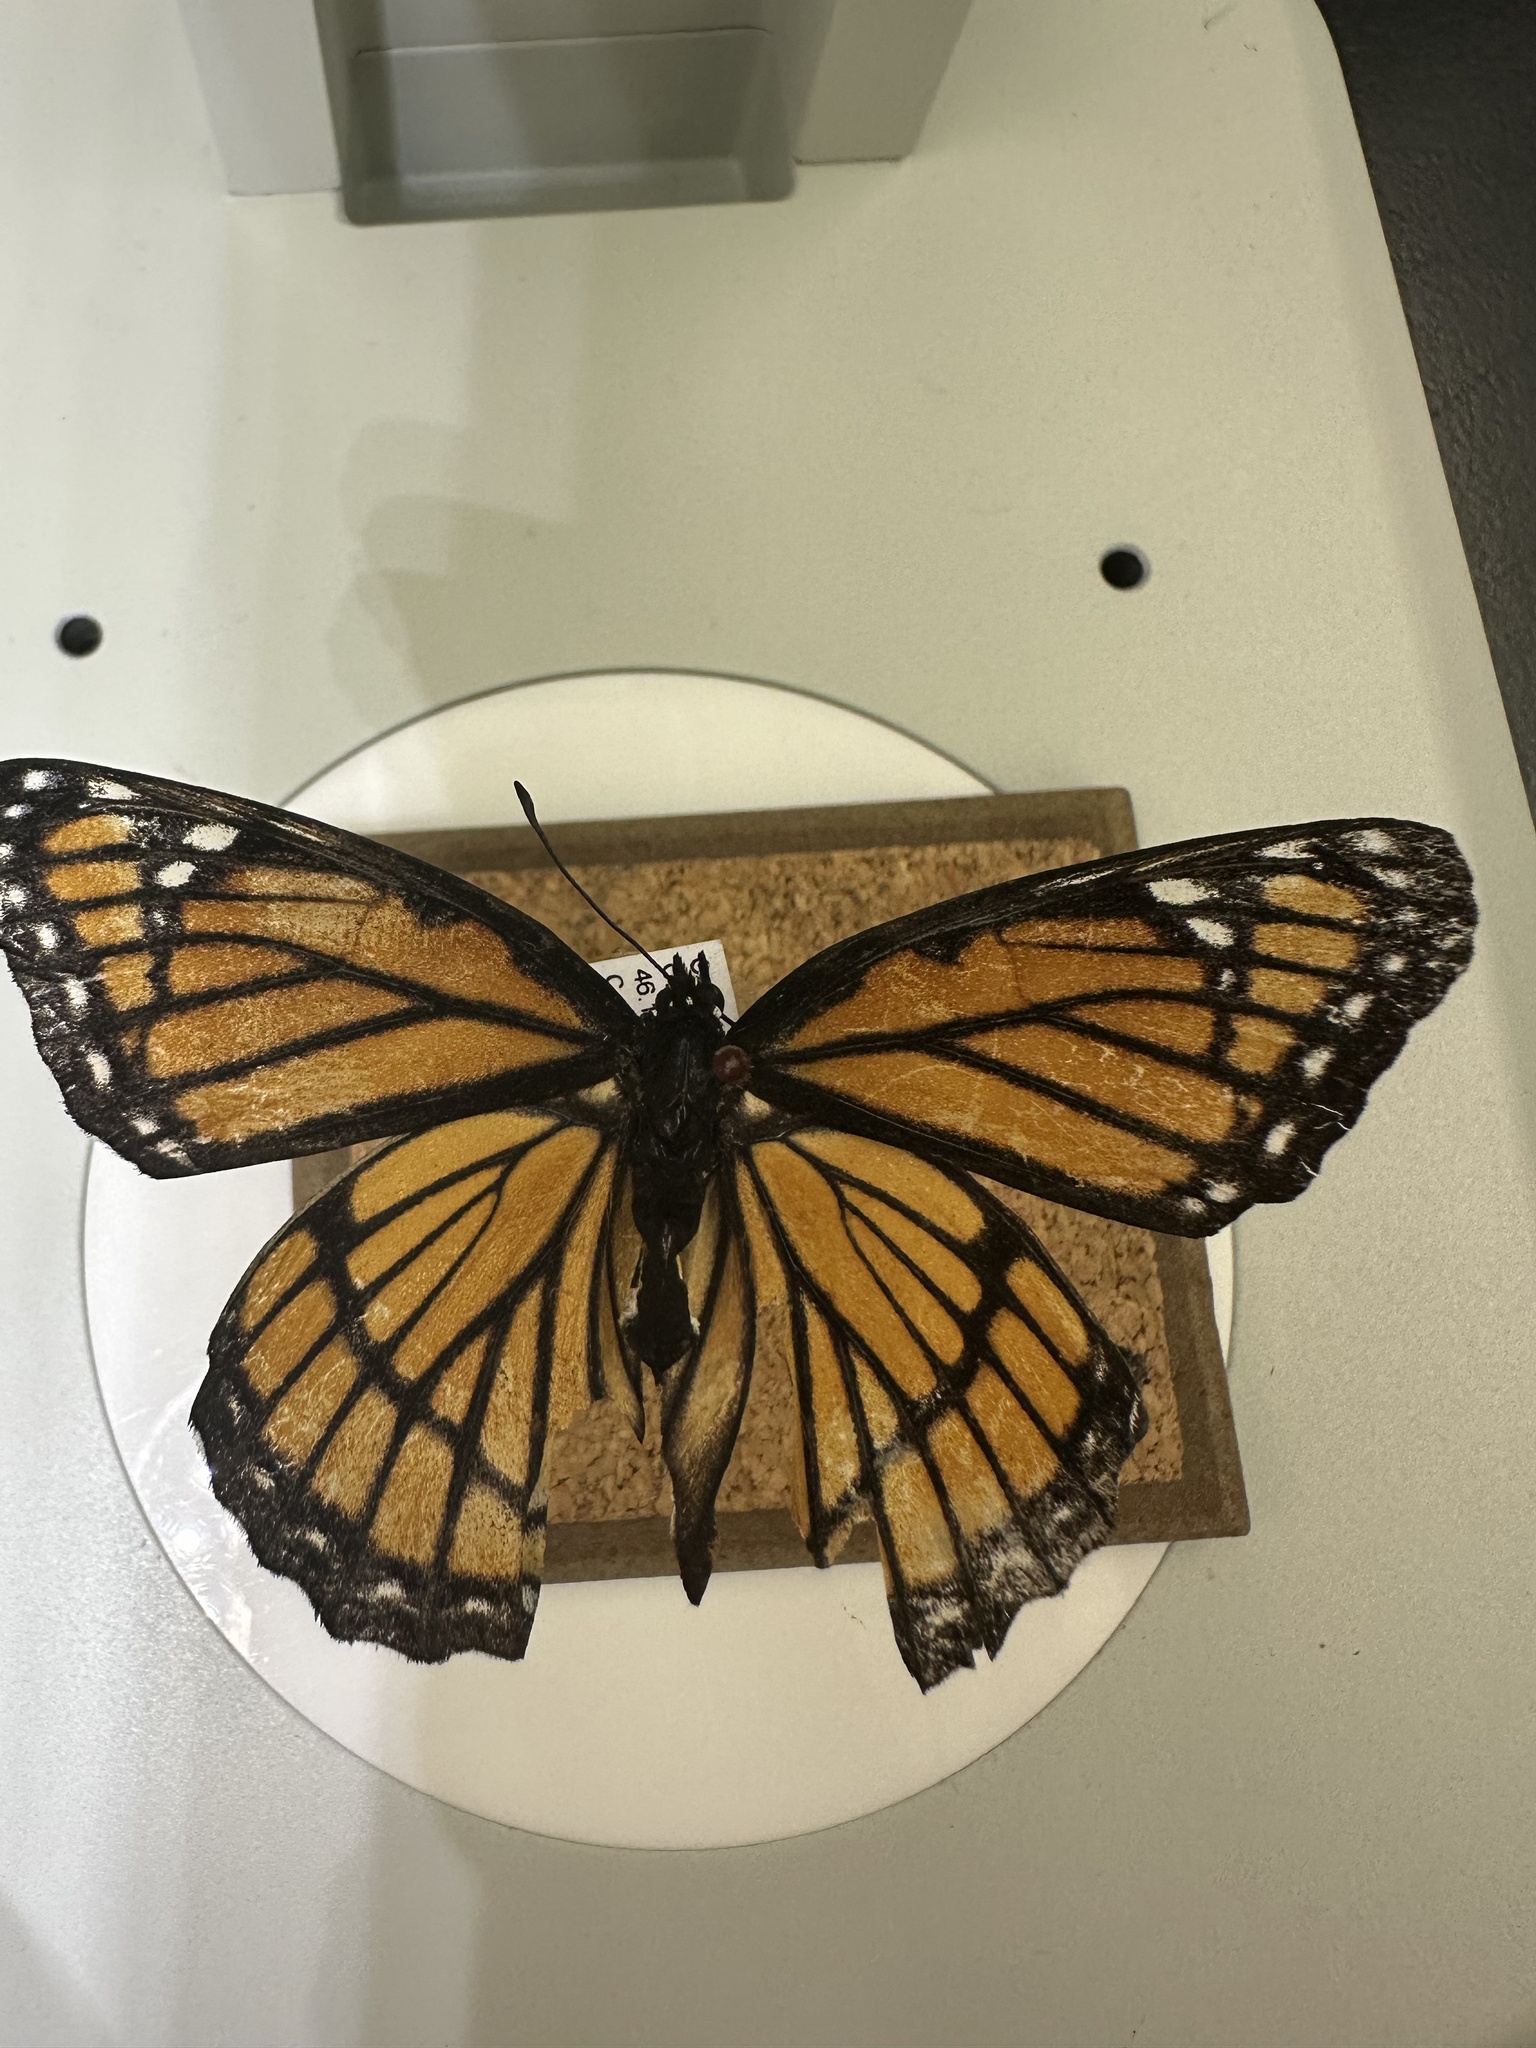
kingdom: Animalia
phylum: Arthropoda
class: Insecta
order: Lepidoptera
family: Nymphalidae
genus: Limenitis
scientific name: Limenitis archippus
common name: Viceroy
